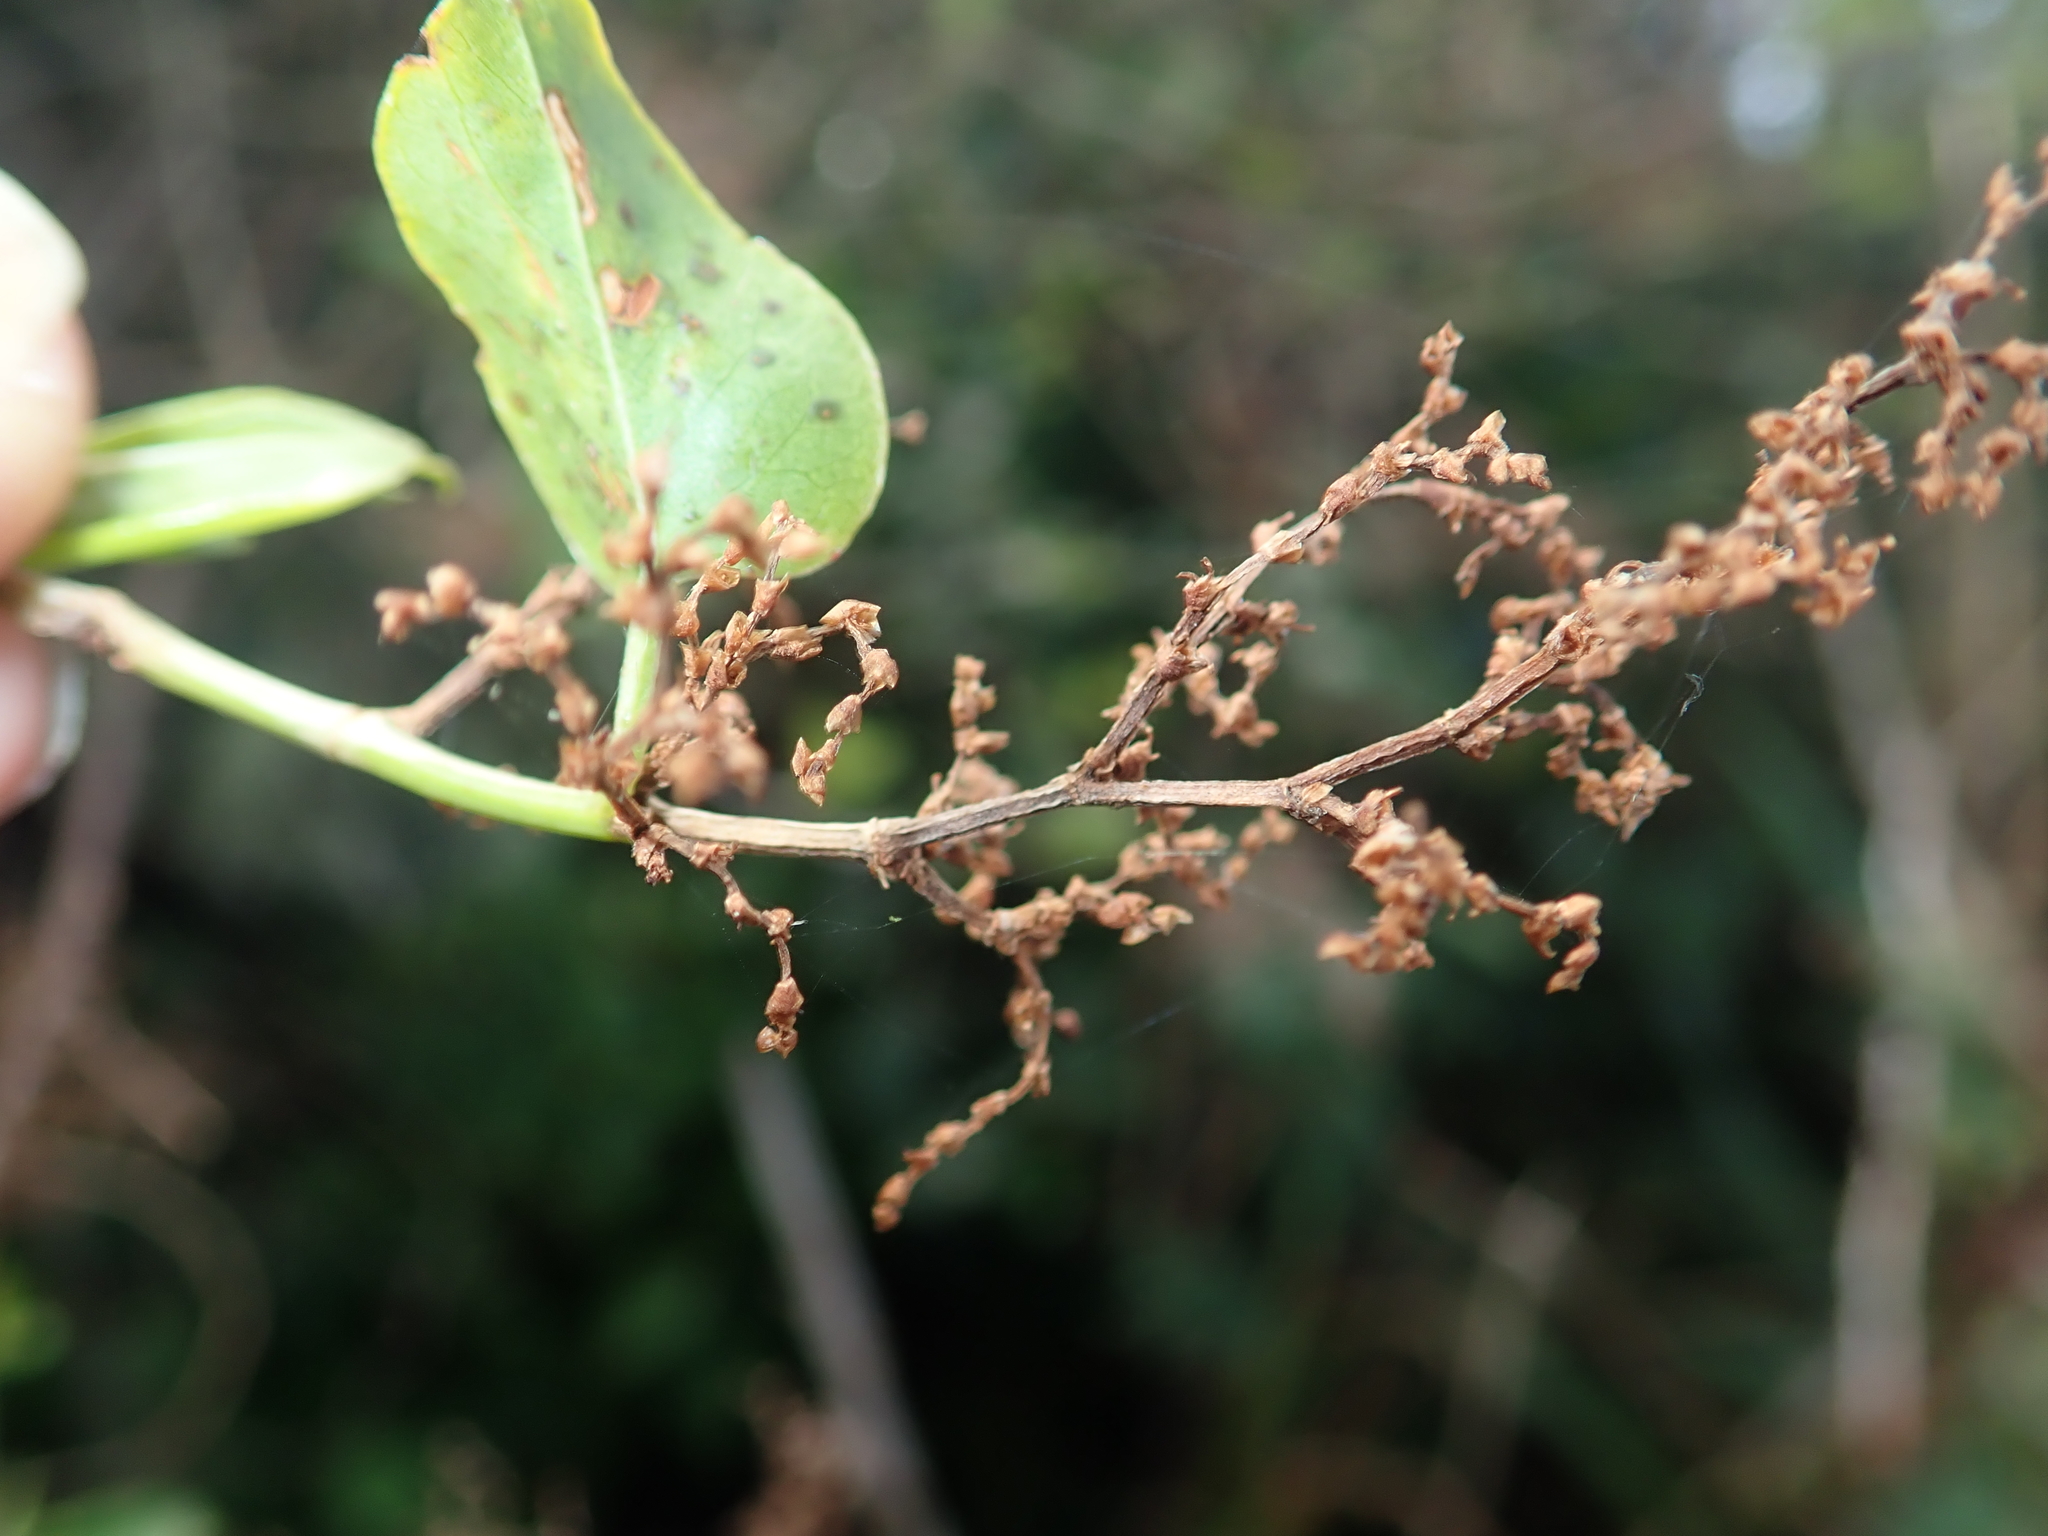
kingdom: Plantae
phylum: Tracheophyta
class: Magnoliopsida
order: Caryophyllales
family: Polygonaceae
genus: Muehlenbeckia
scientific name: Muehlenbeckia australis
